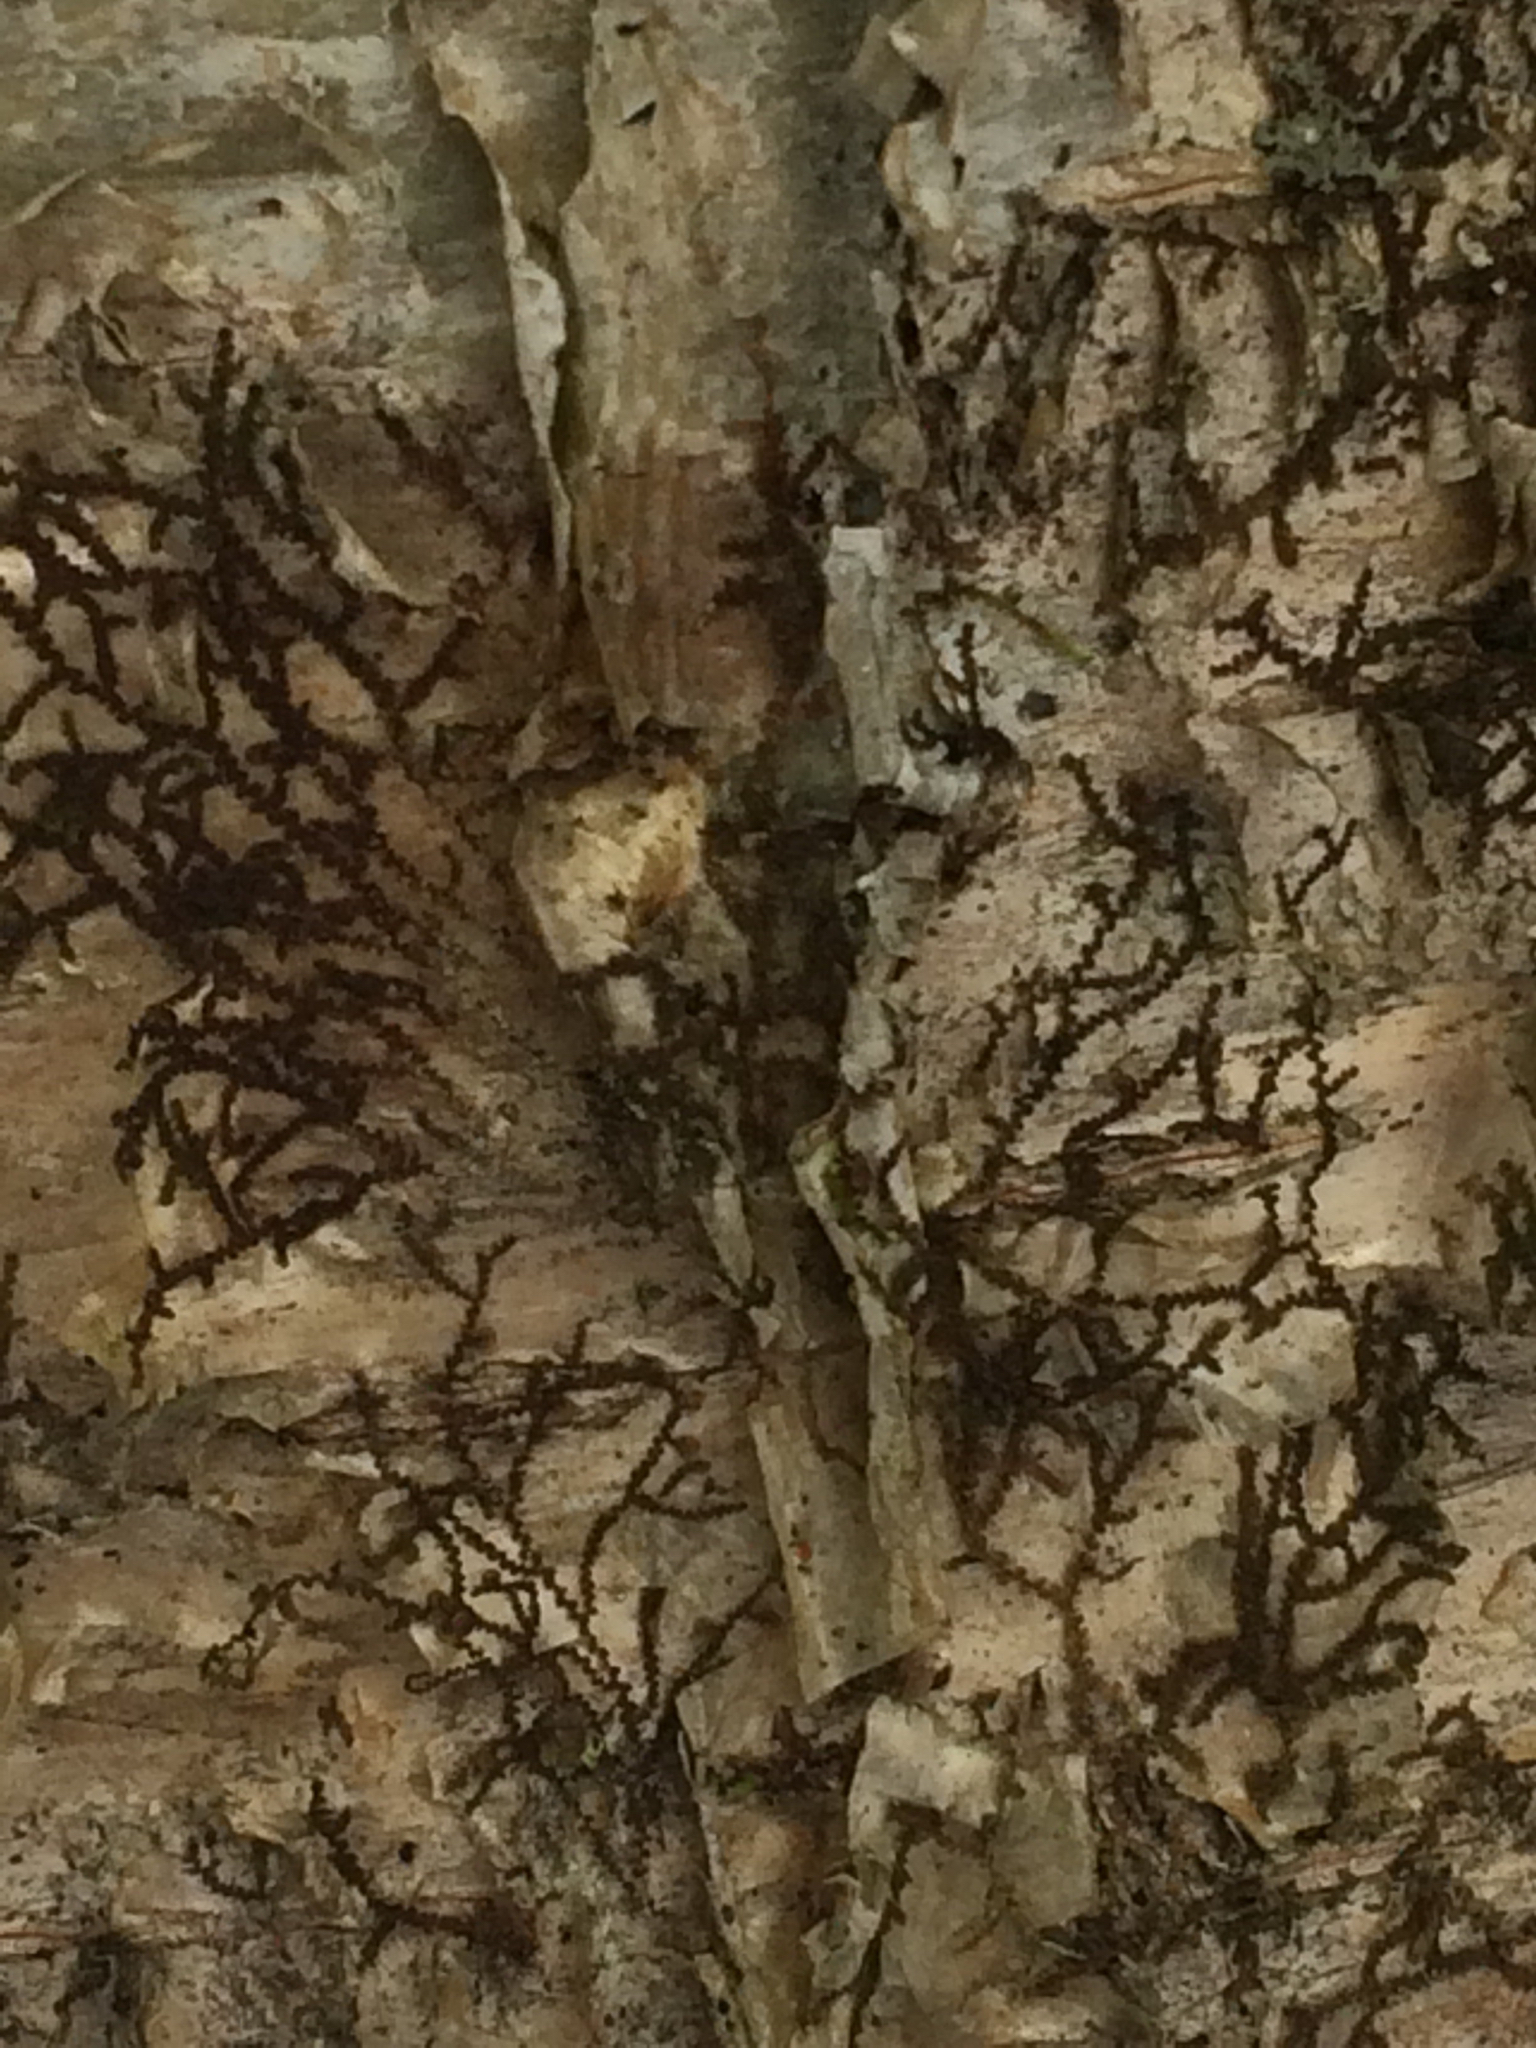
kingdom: Plantae
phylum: Marchantiophyta
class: Jungermanniopsida
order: Porellales
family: Frullaniaceae
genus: Frullania
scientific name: Frullania
